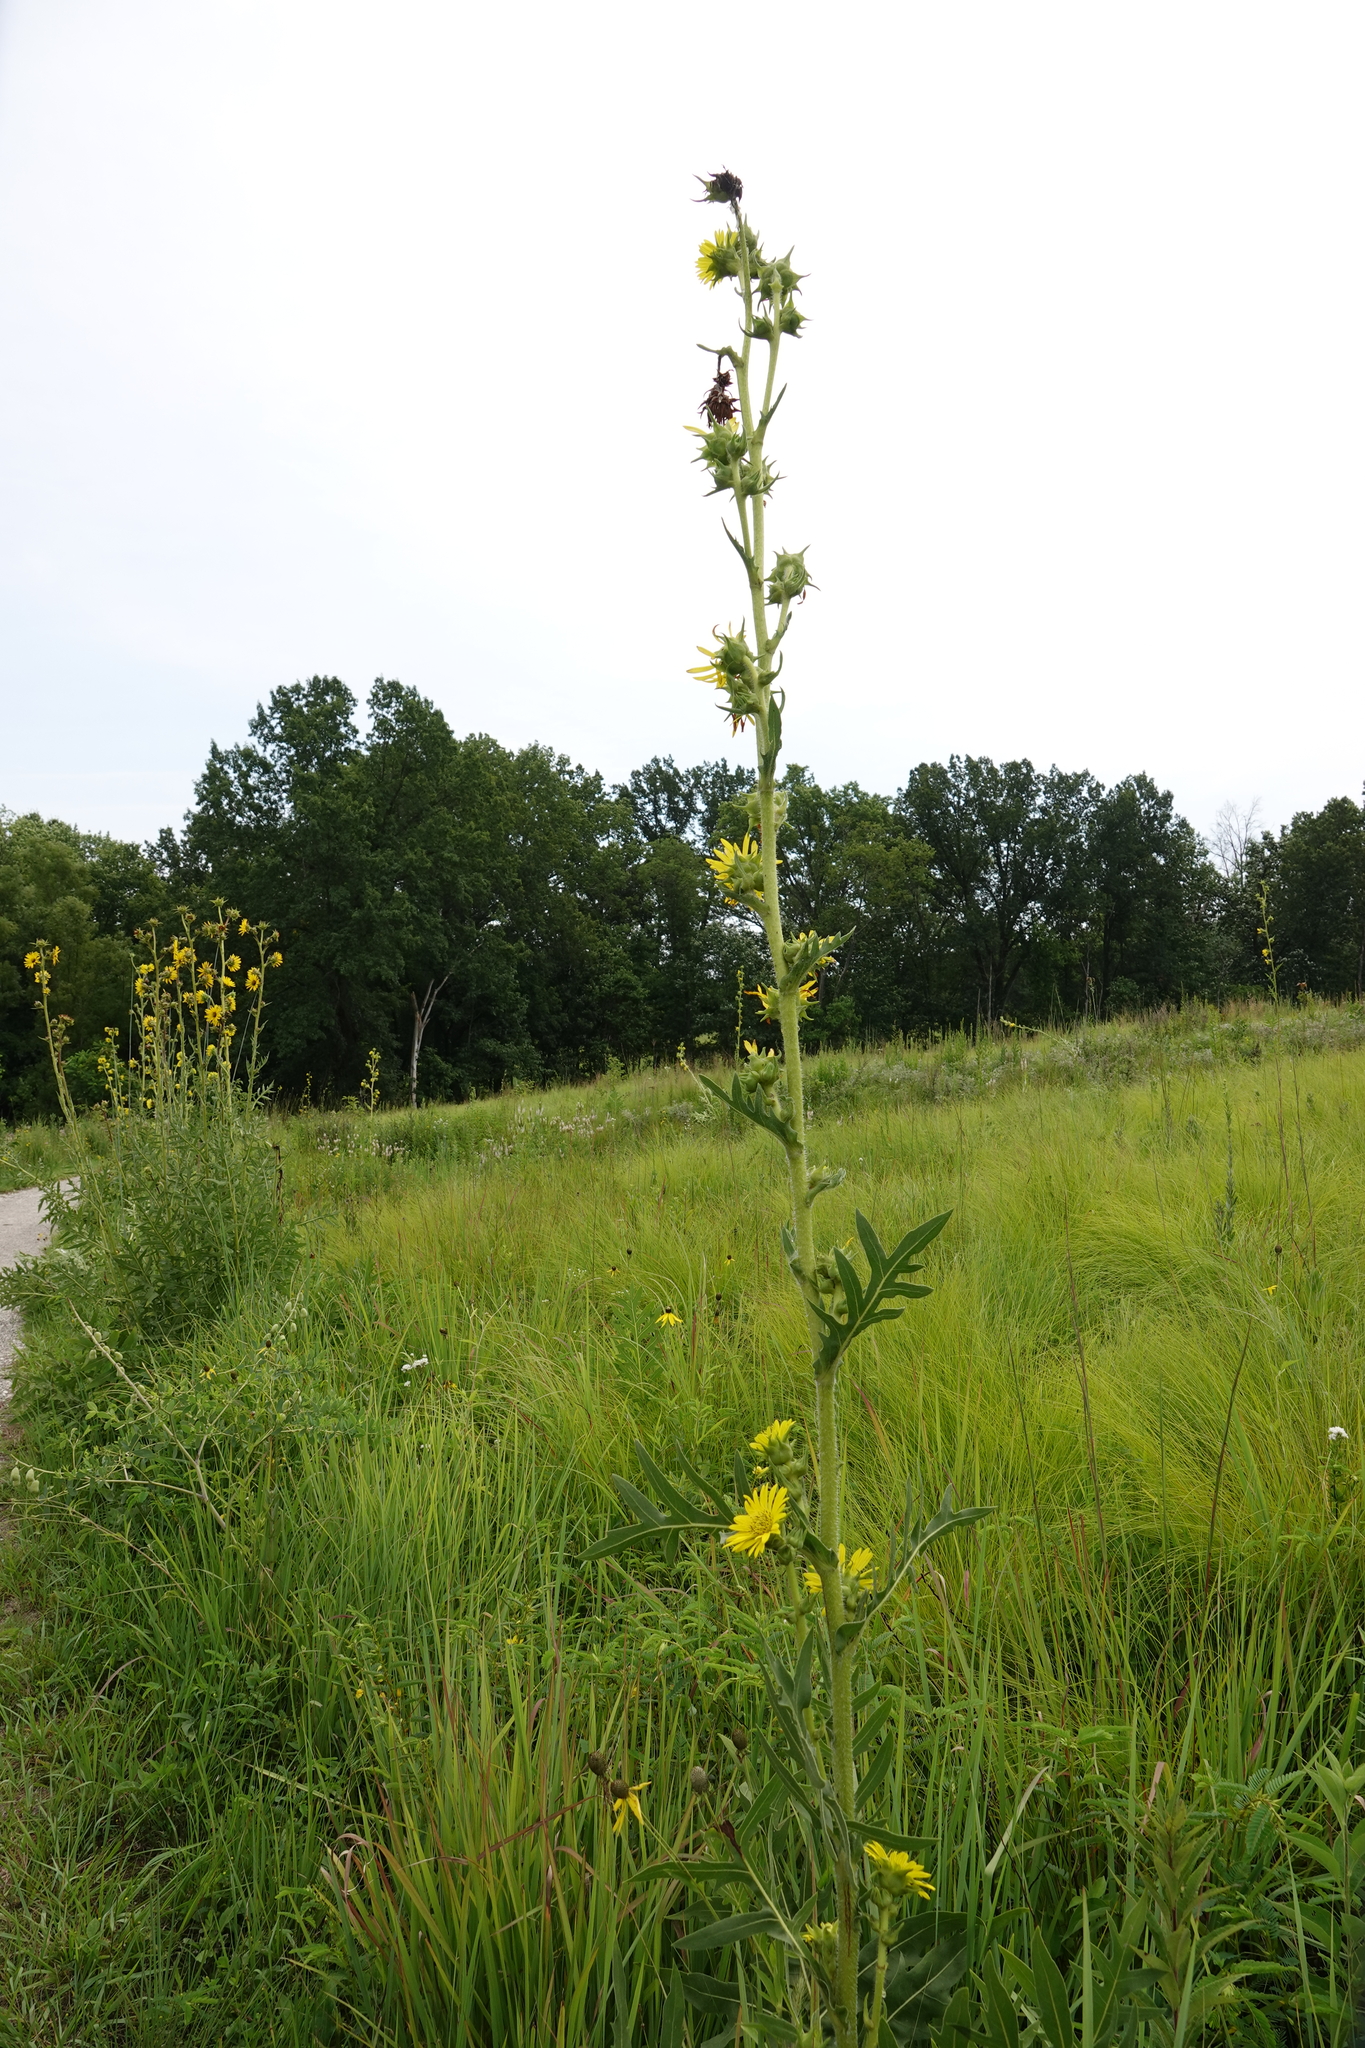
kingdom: Plantae
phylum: Tracheophyta
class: Magnoliopsida
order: Asterales
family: Asteraceae
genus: Silphium
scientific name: Silphium laciniatum
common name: Polarplant
